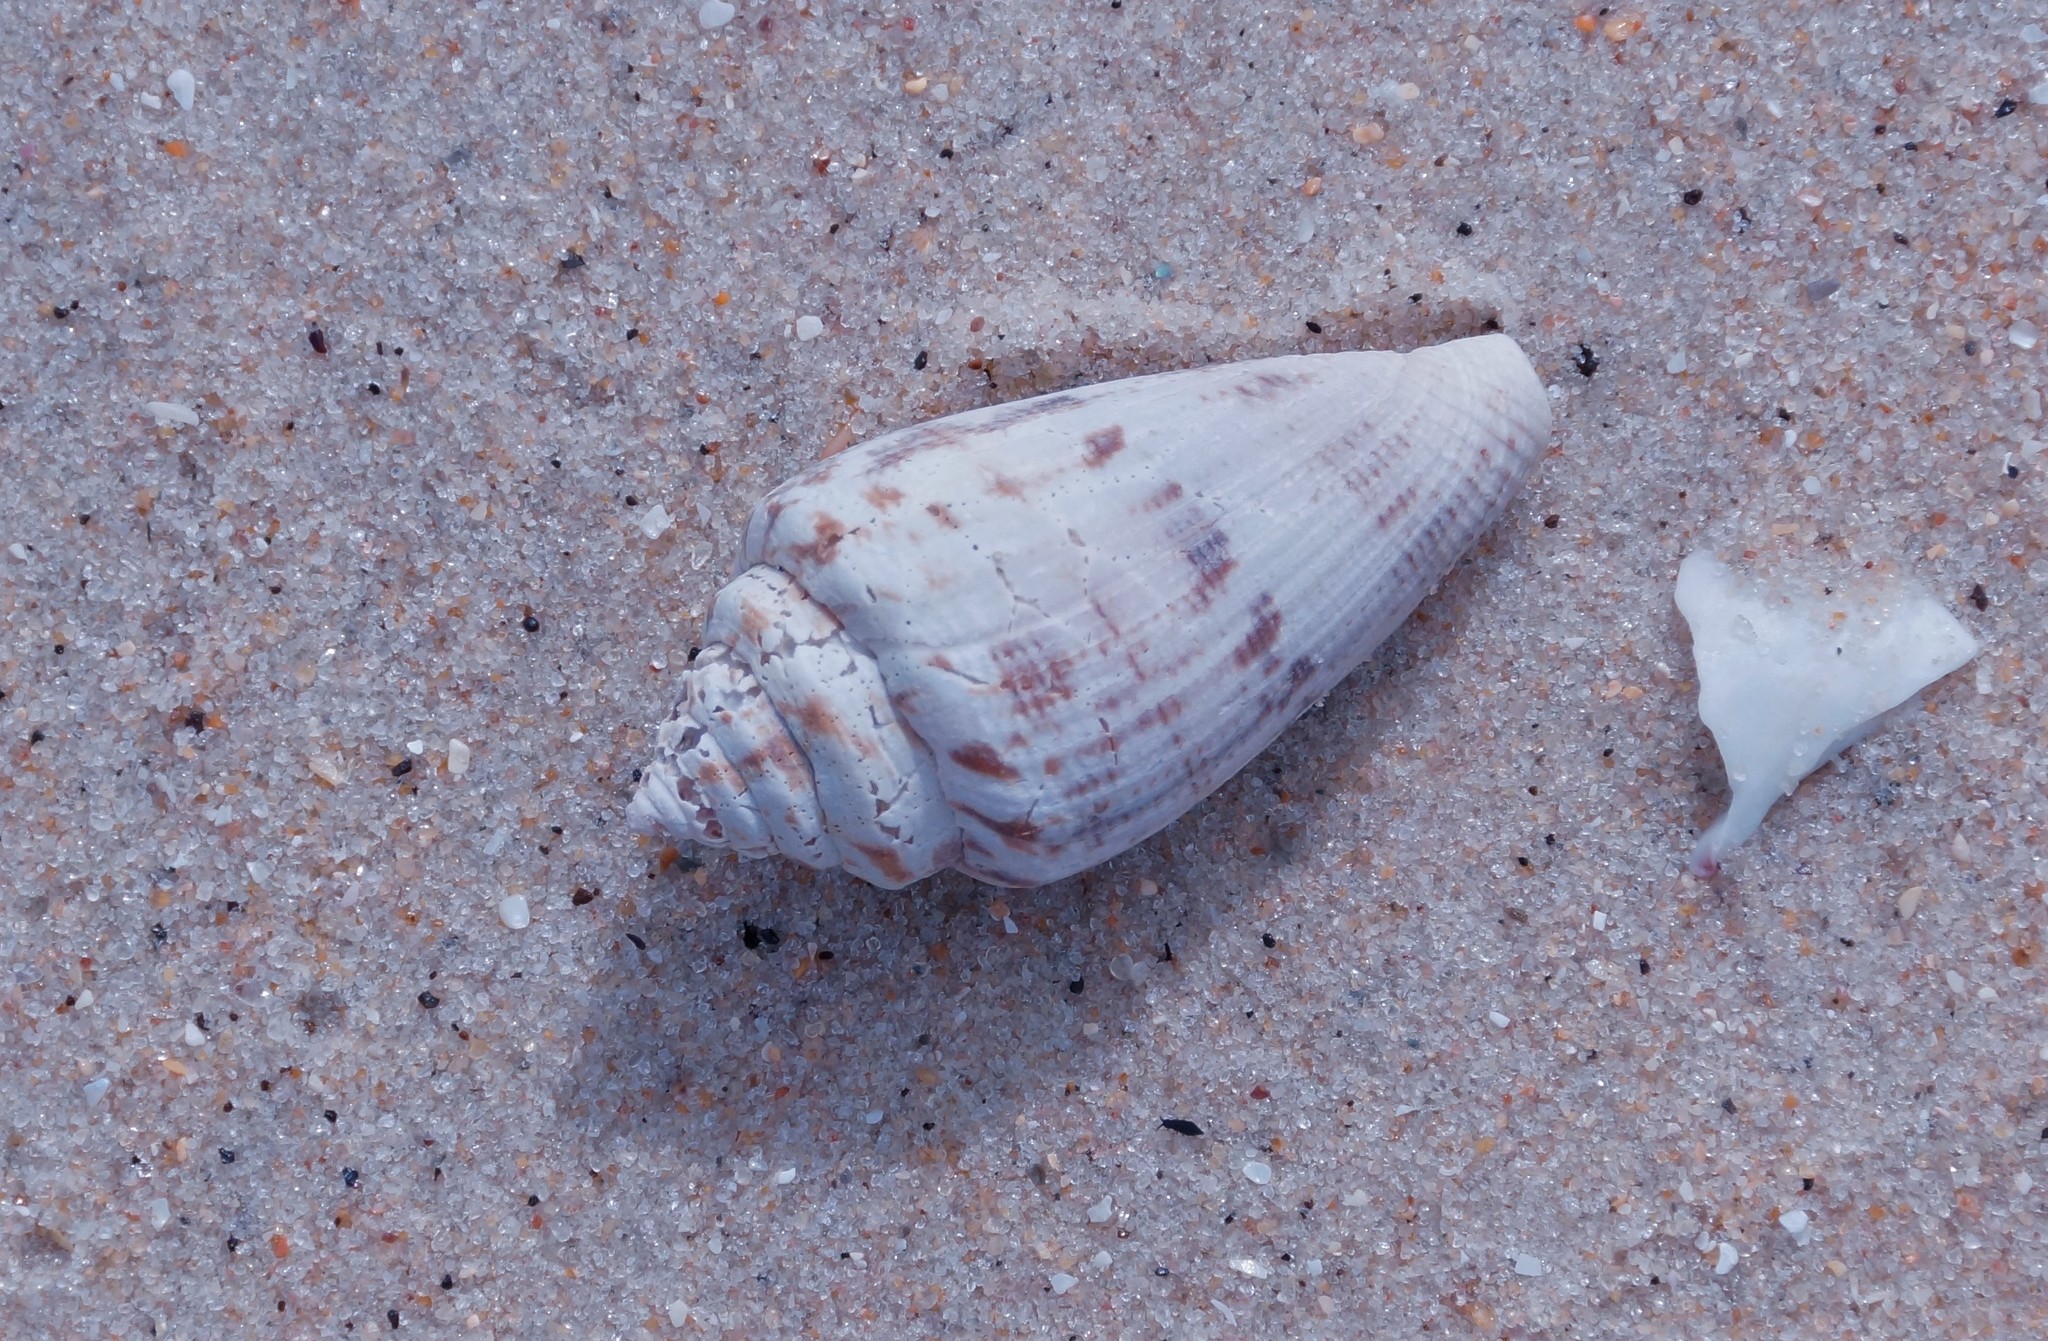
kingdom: Animalia
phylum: Mollusca
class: Gastropoda
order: Neogastropoda
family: Conidae
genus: Conus
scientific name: Conus anemone
